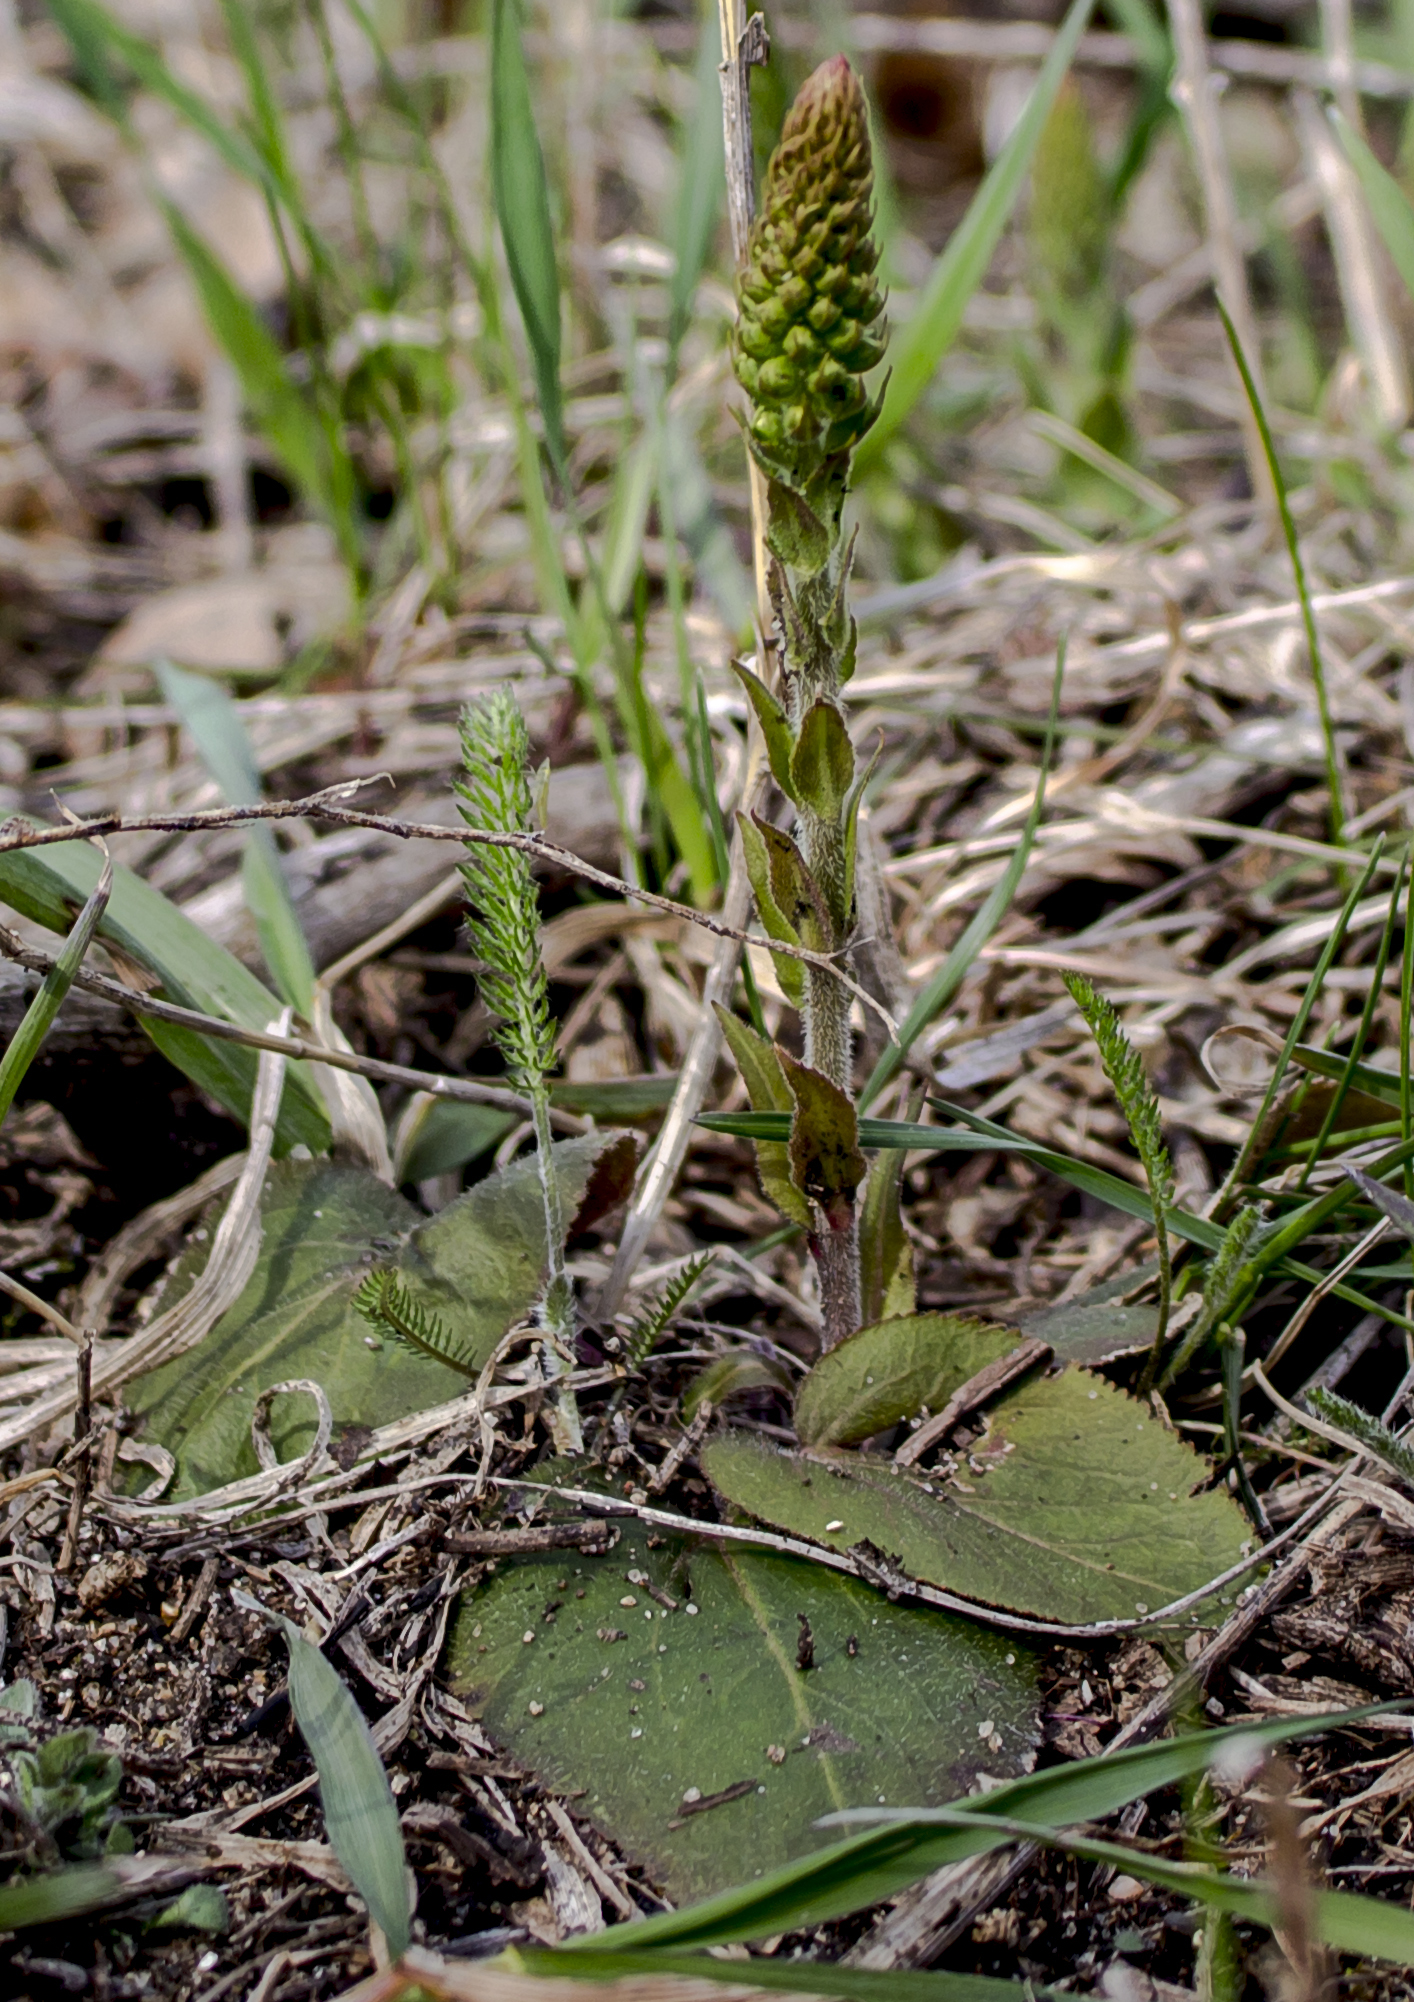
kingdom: Plantae
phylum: Tracheophyta
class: Magnoliopsida
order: Lamiales
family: Plantaginaceae
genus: Synthyris
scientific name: Synthyris bullii
